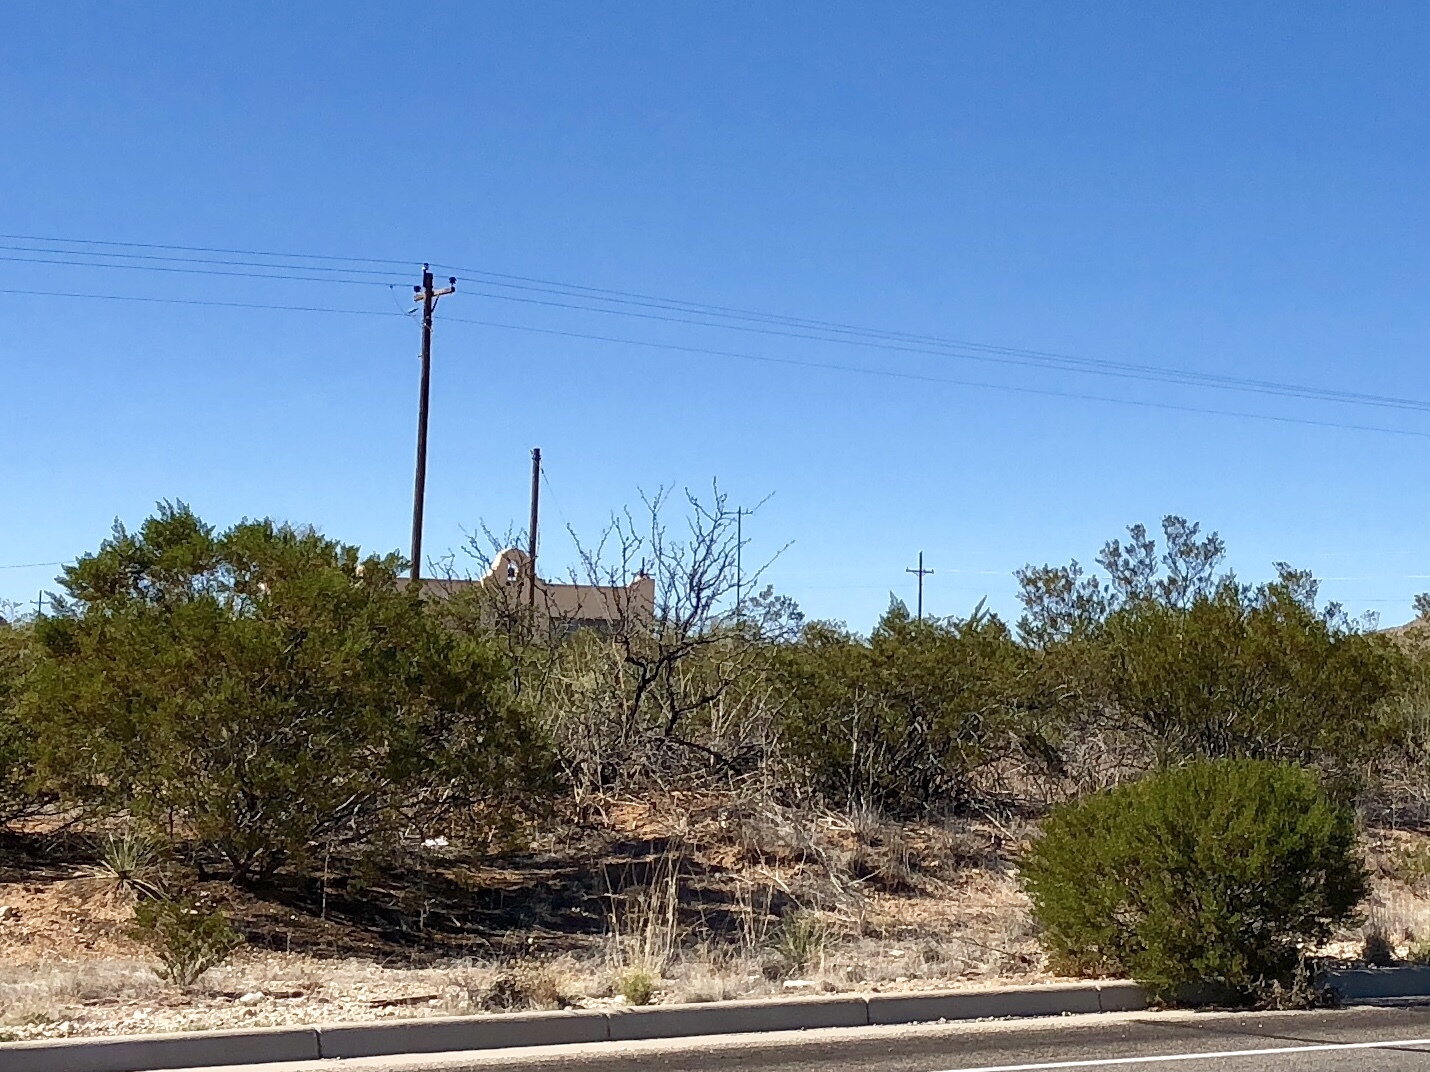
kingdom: Plantae
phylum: Tracheophyta
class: Magnoliopsida
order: Zygophyllales
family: Zygophyllaceae
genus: Larrea
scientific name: Larrea tridentata
